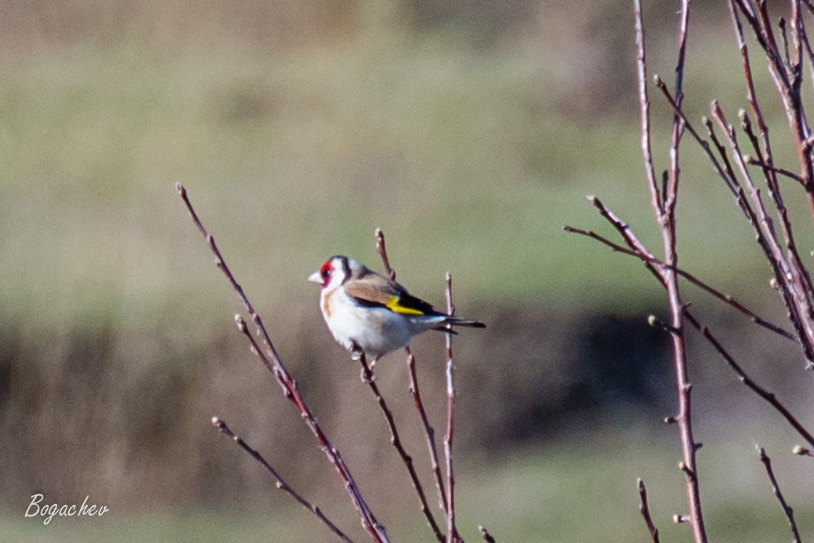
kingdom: Animalia
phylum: Chordata
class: Aves
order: Passeriformes
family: Fringillidae
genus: Carduelis
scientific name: Carduelis carduelis
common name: European goldfinch
